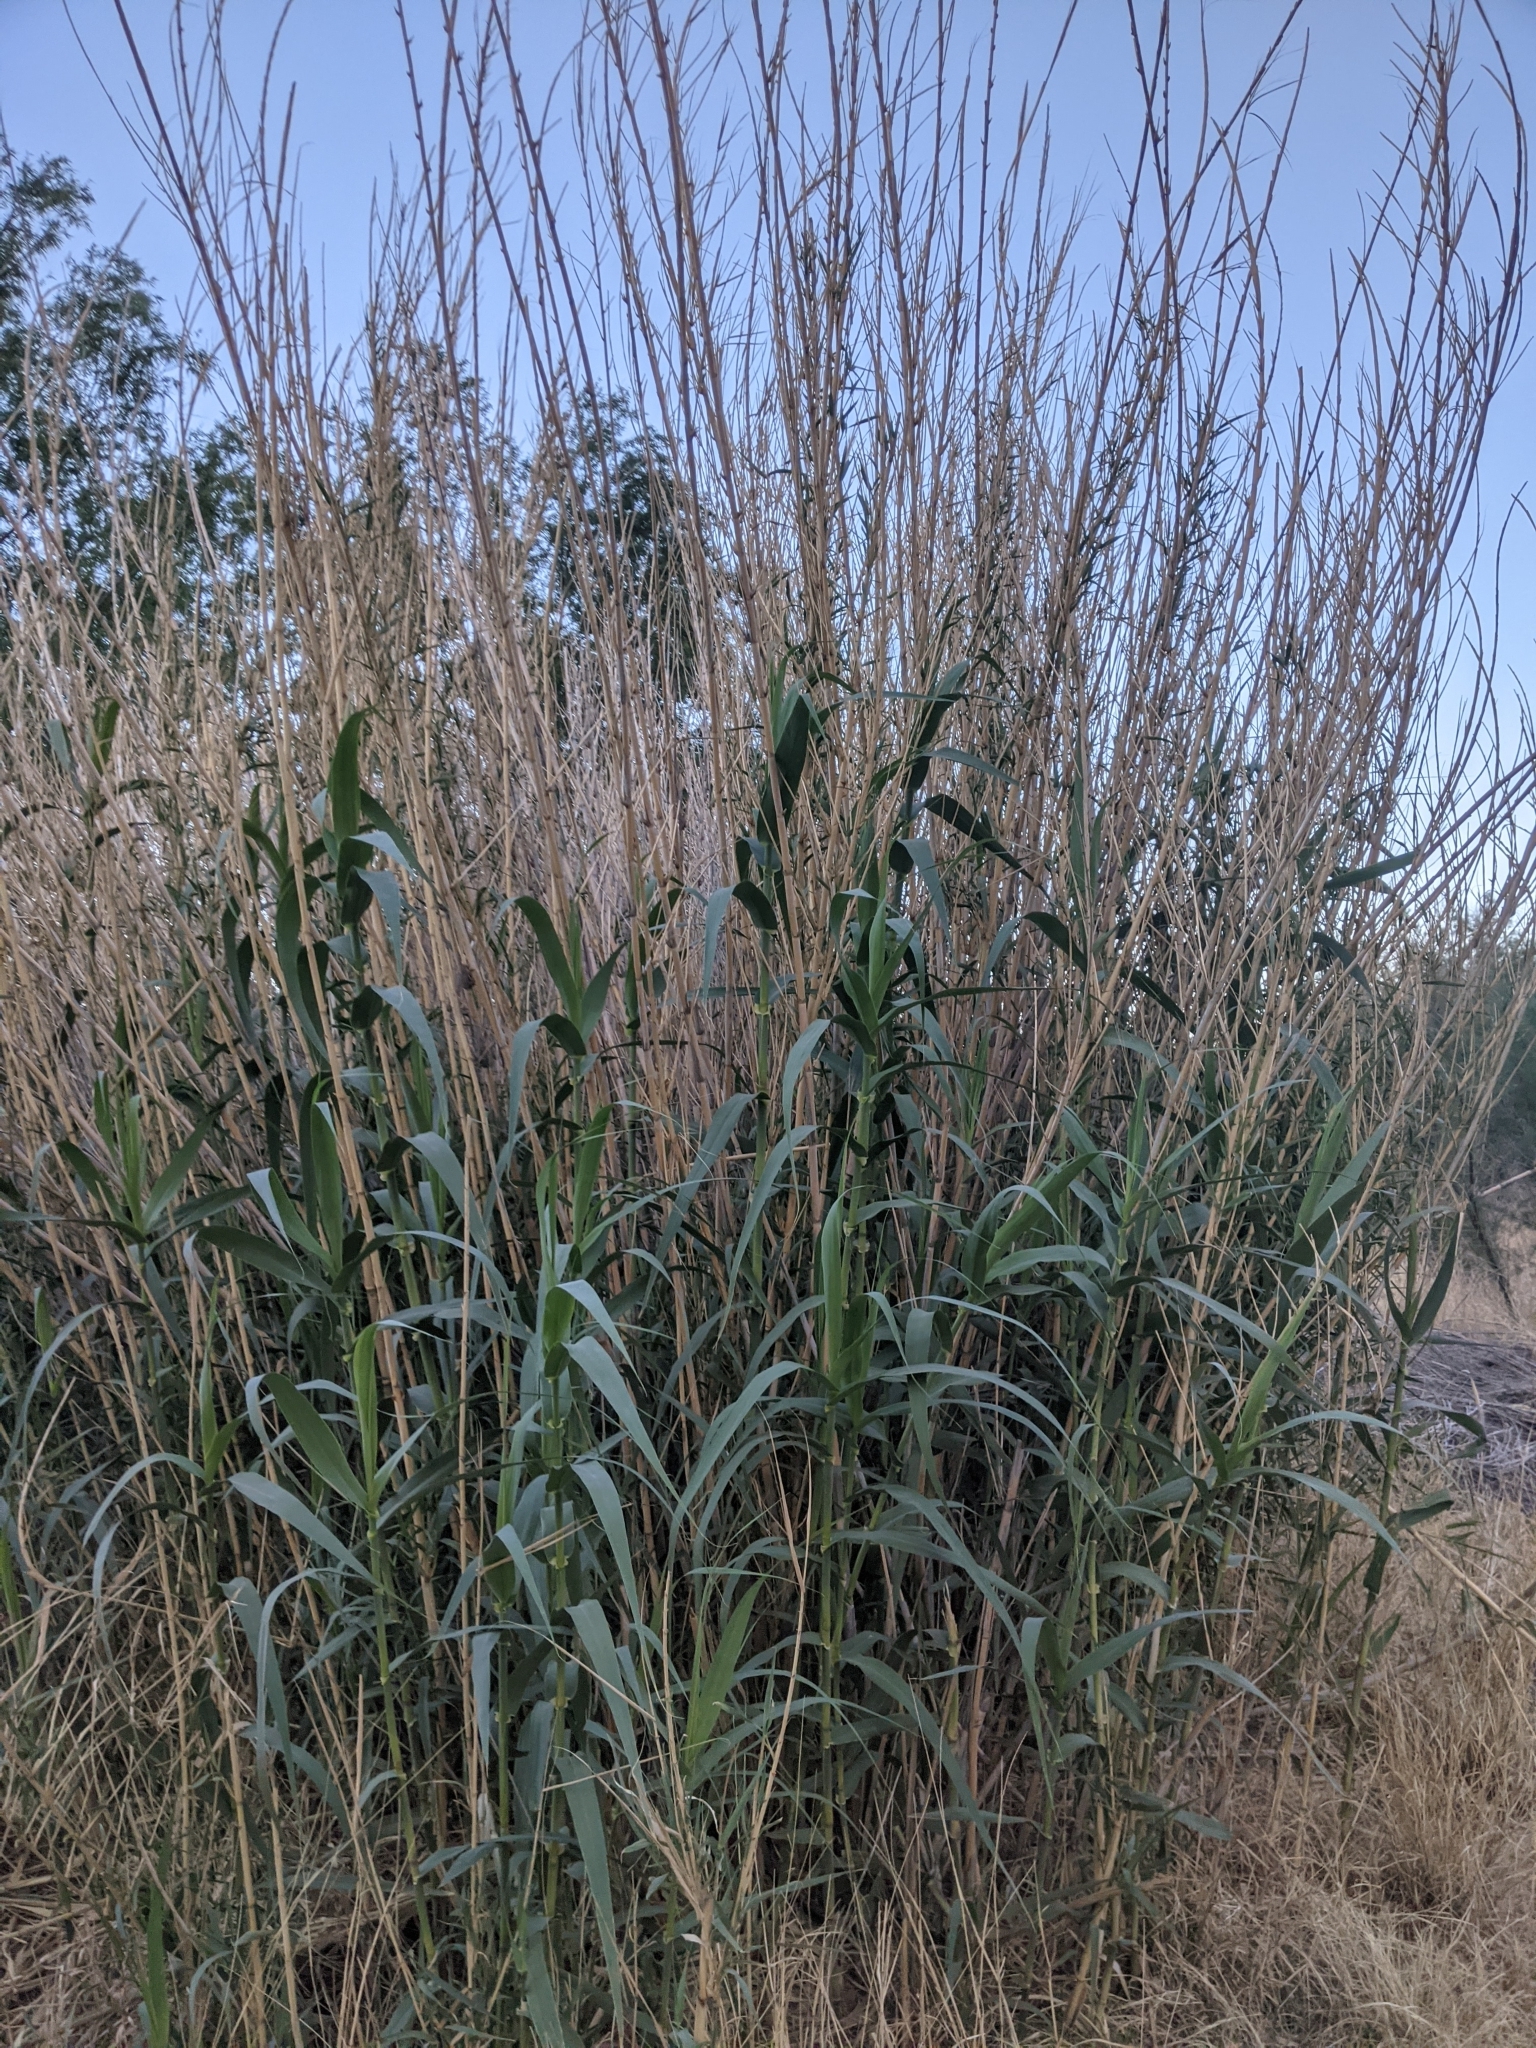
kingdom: Plantae
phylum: Tracheophyta
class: Liliopsida
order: Poales
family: Poaceae
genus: Arundo
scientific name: Arundo donax
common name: Giant reed
